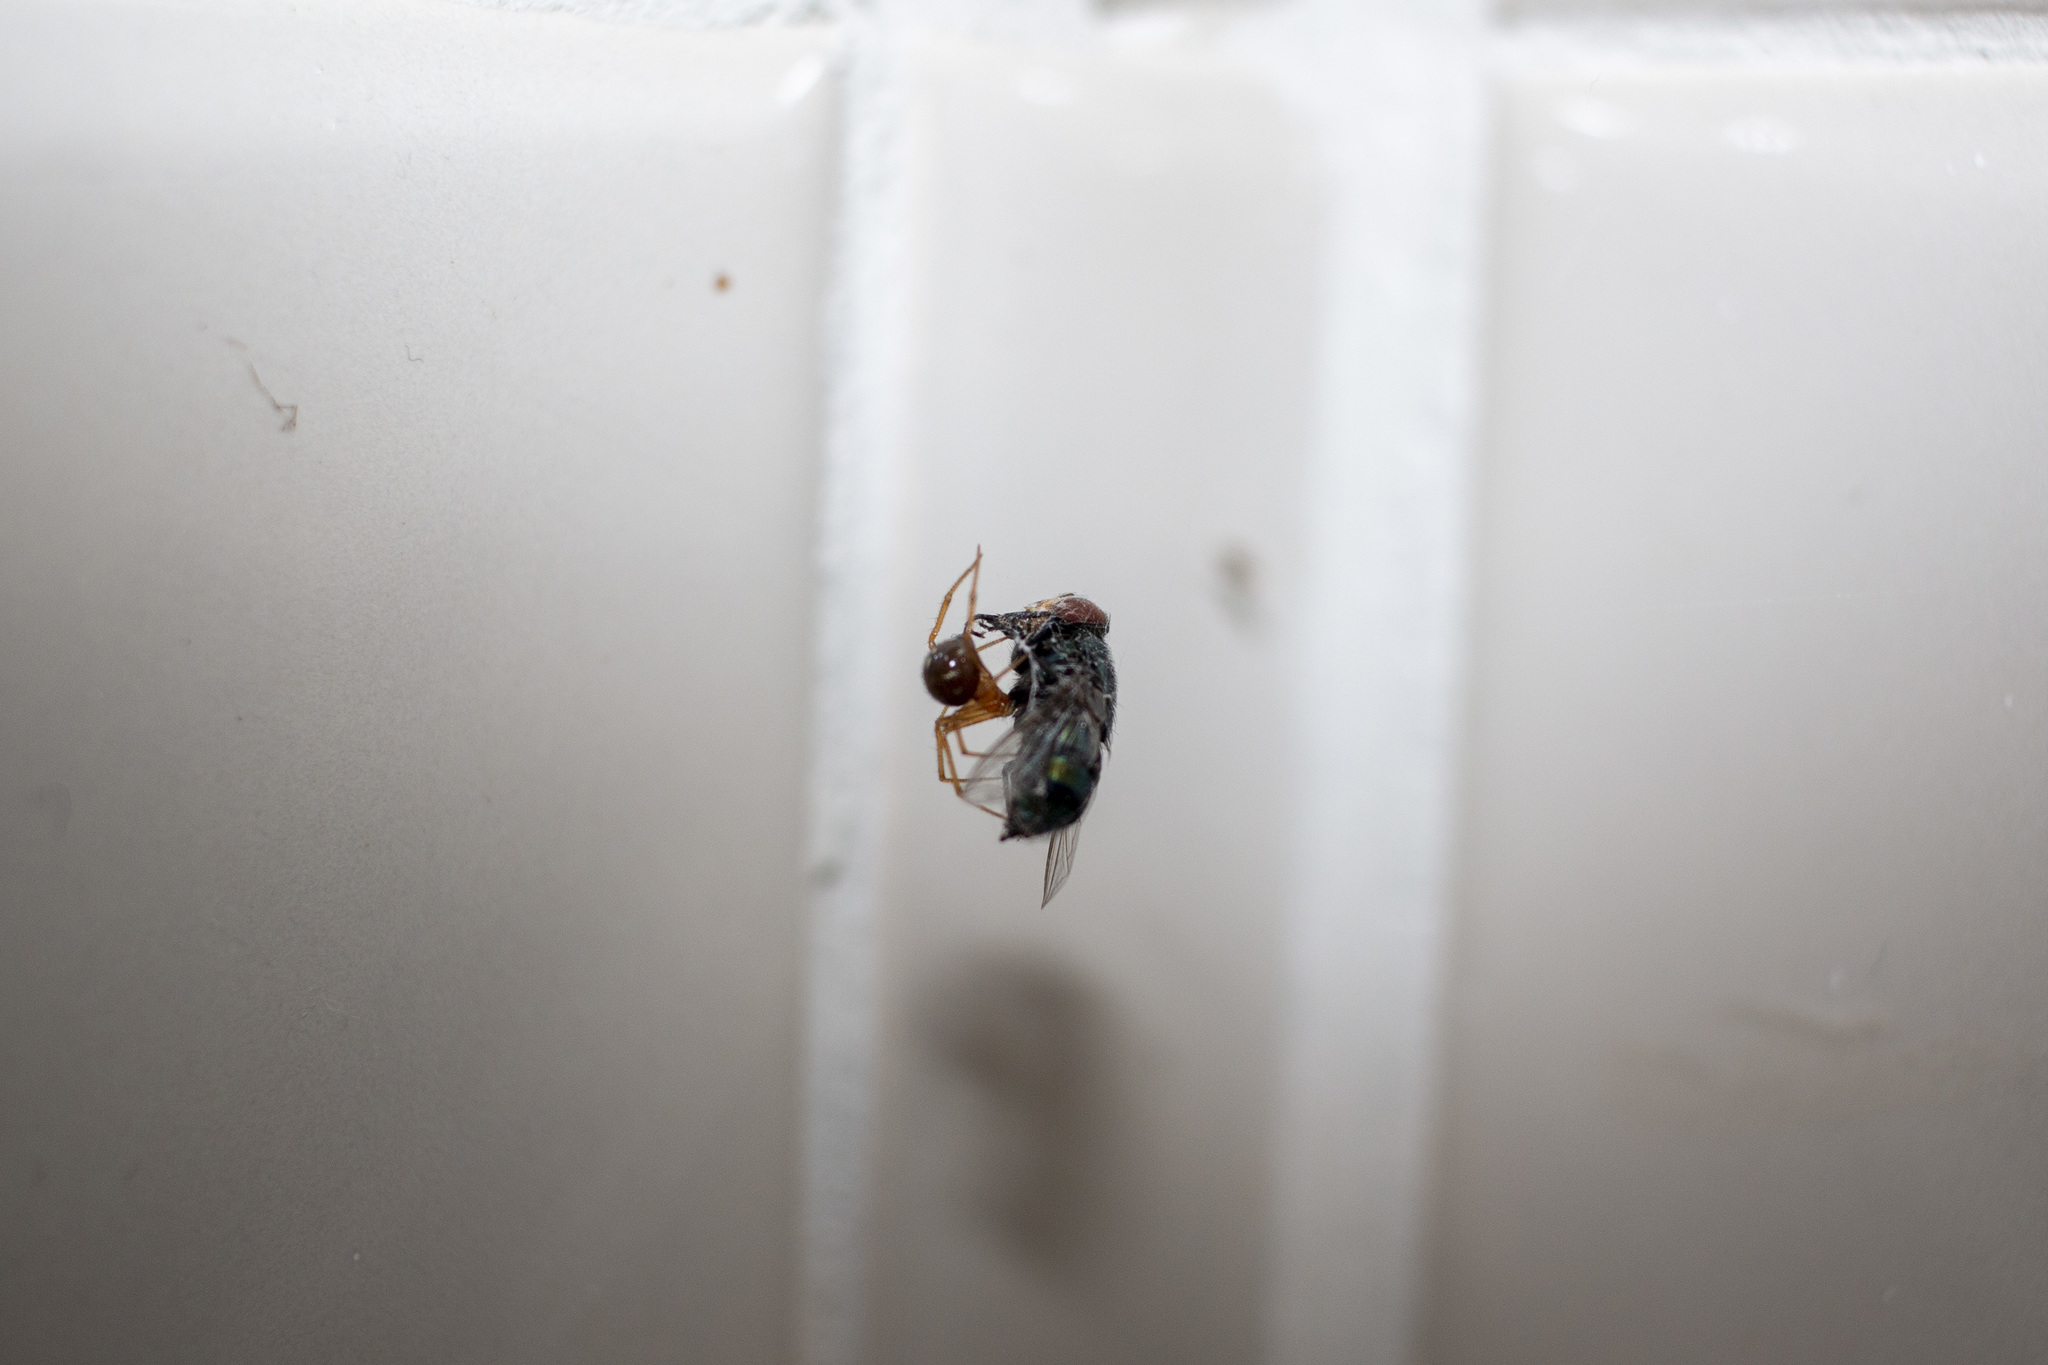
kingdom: Animalia
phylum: Arthropoda
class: Arachnida
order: Araneae
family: Theridiidae
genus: Nesticodes
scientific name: Nesticodes rufipes
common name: Cobweb spiders
